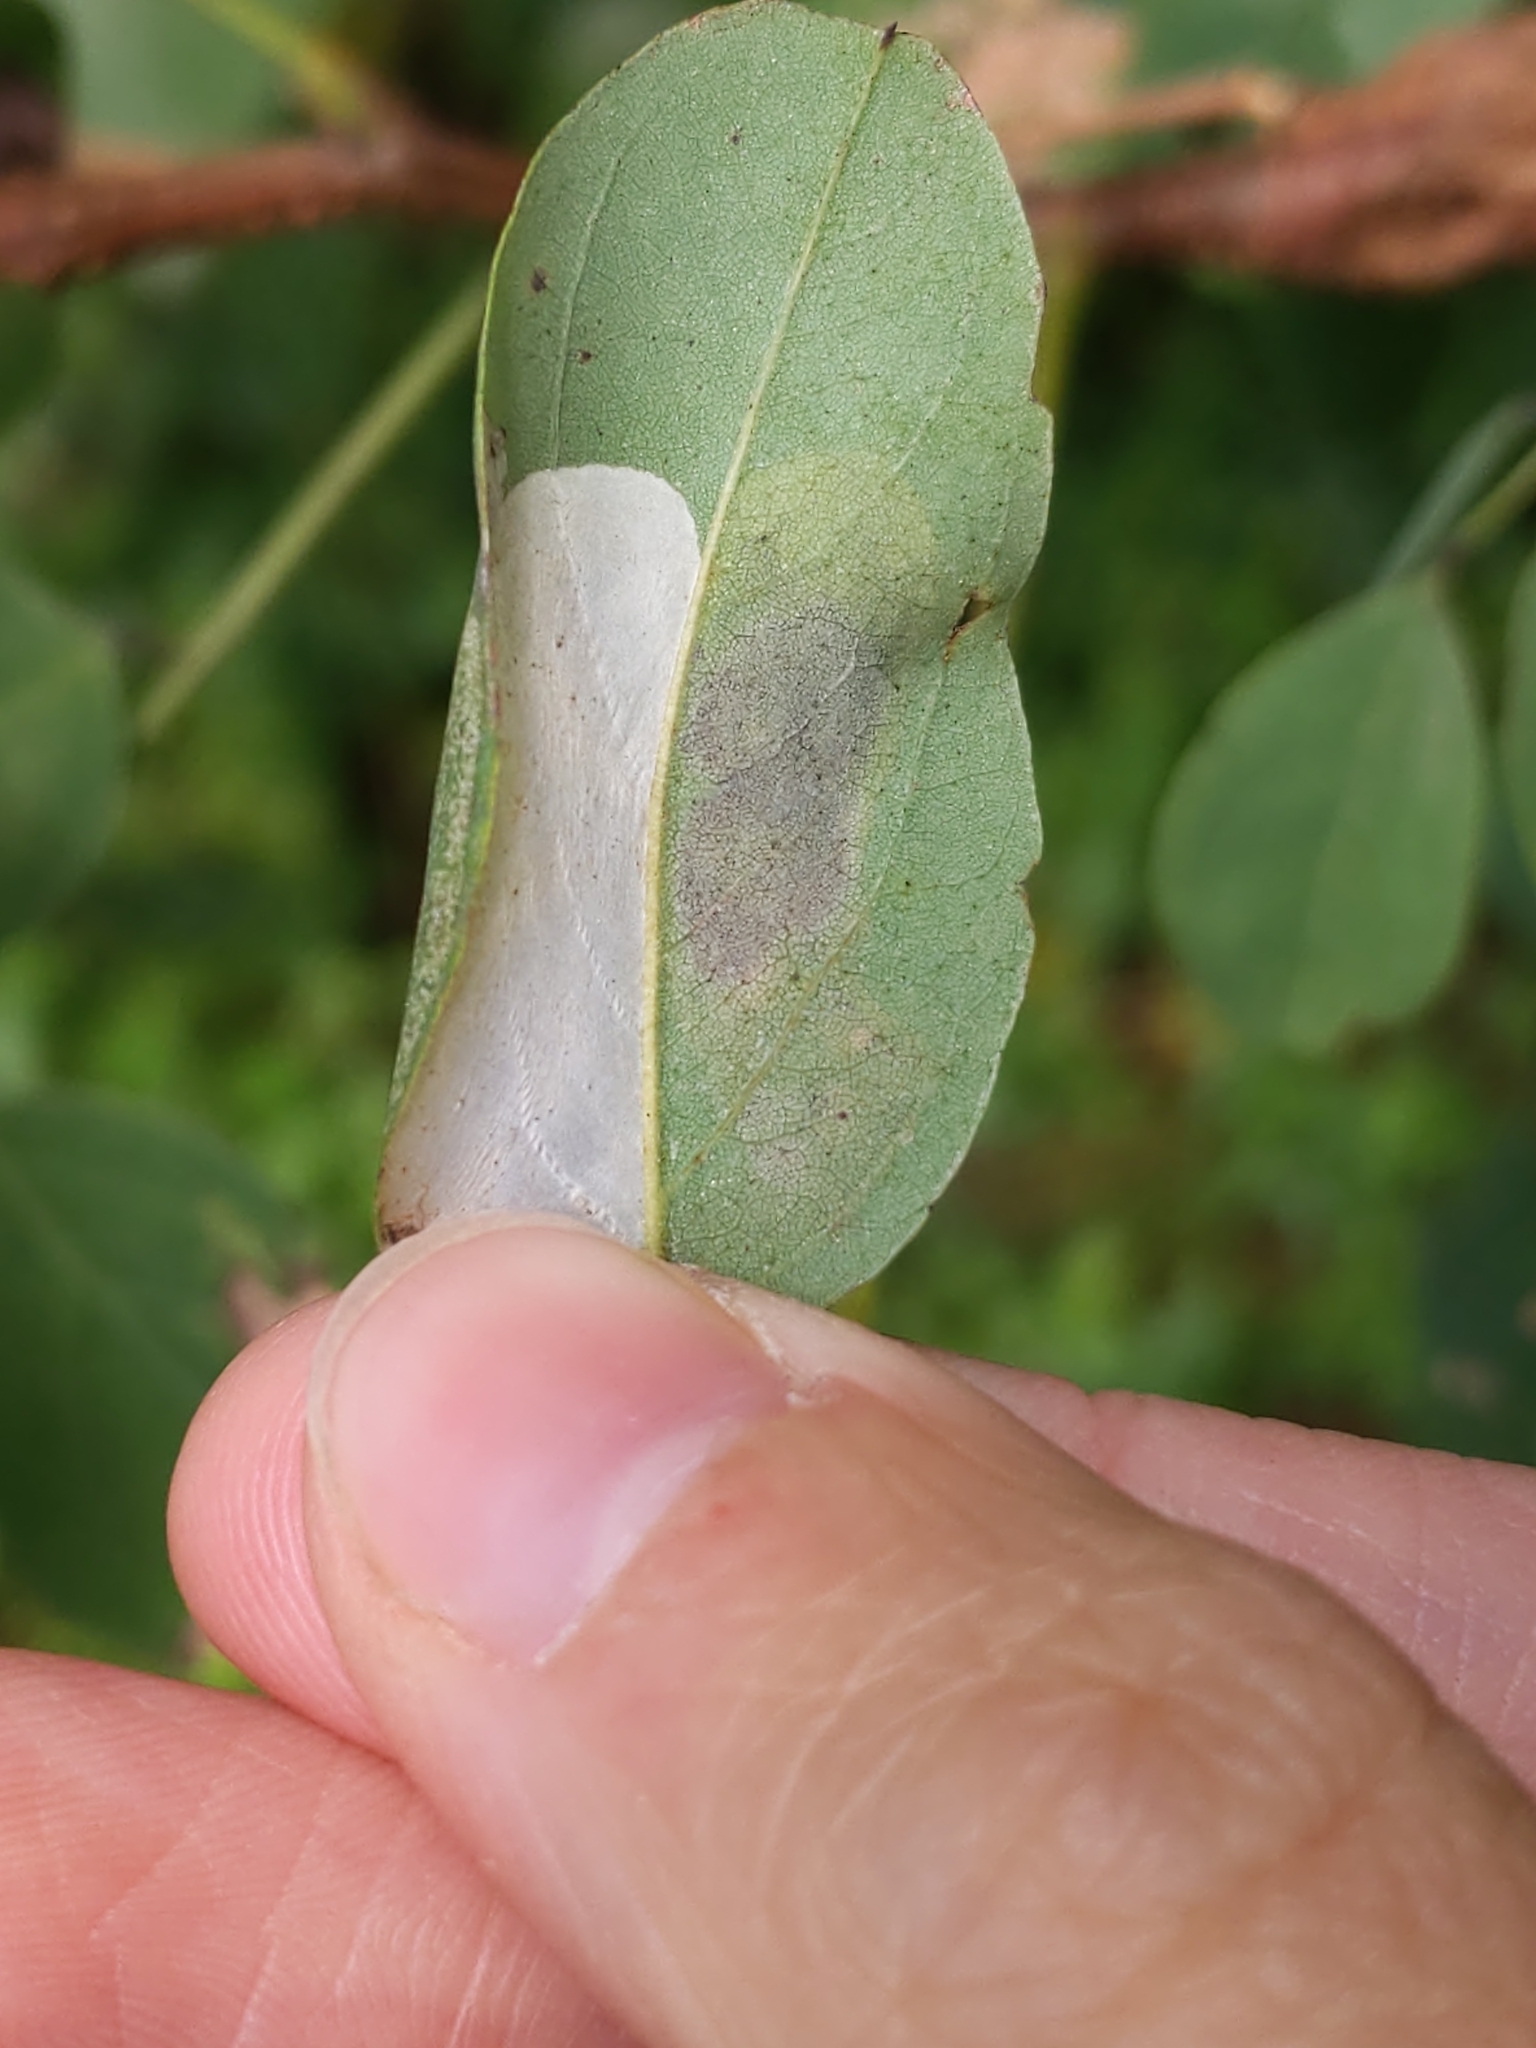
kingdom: Animalia
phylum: Arthropoda
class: Insecta
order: Lepidoptera
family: Gracillariidae
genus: Macrosaccus
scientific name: Macrosaccus robiniella
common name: Leaf blotch miner moth
